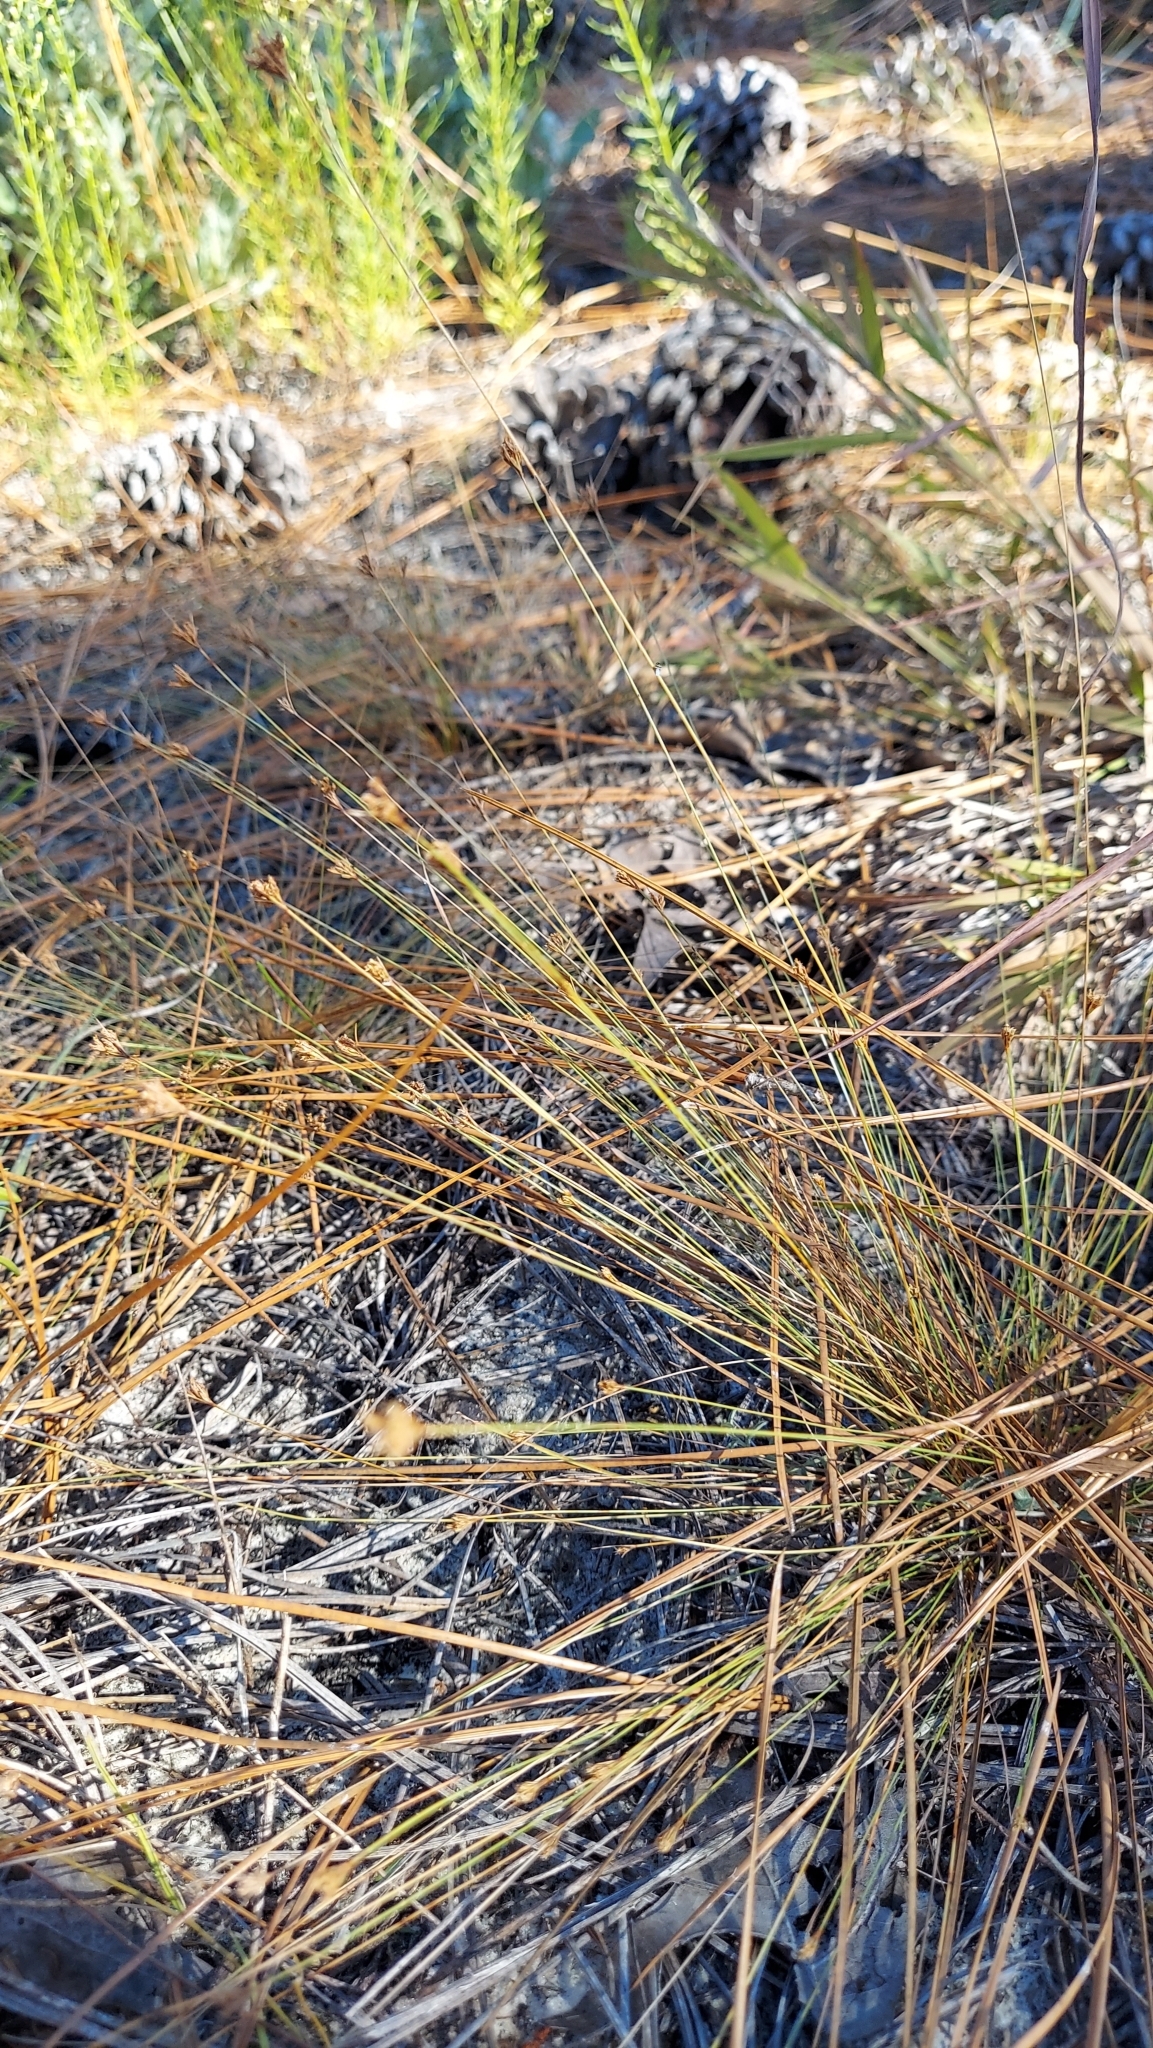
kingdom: Plantae
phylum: Tracheophyta
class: Liliopsida
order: Poales
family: Cyperaceae
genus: Bulbostylis
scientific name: Bulbostylis ciliatifolia
